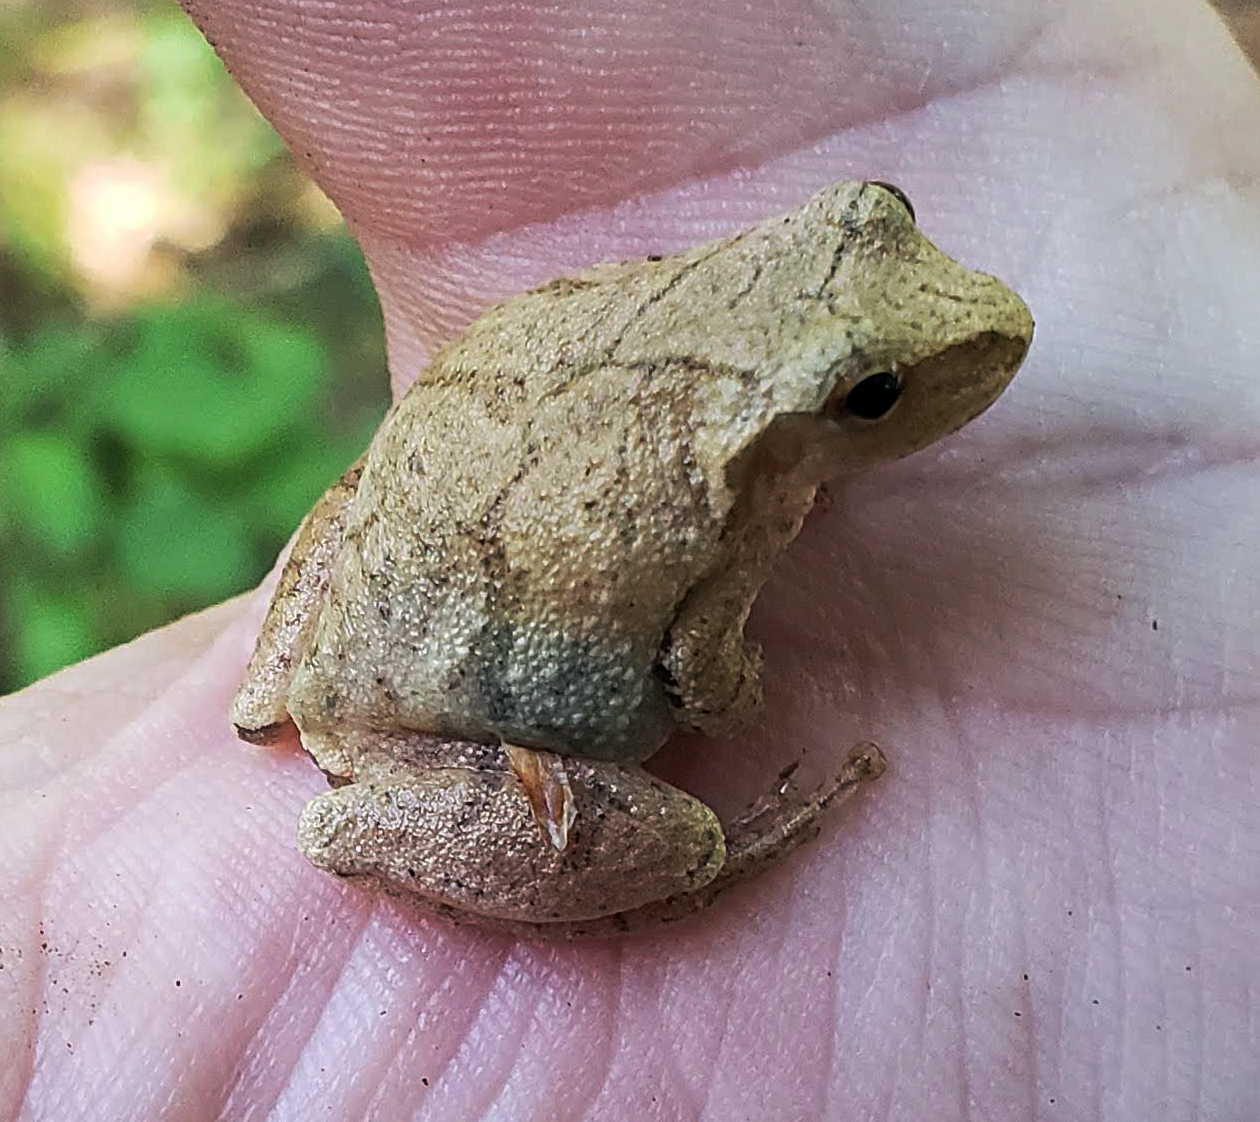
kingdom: Animalia
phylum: Chordata
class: Amphibia
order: Anura
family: Hylidae
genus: Pseudacris
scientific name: Pseudacris crucifer
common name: Spring peeper
